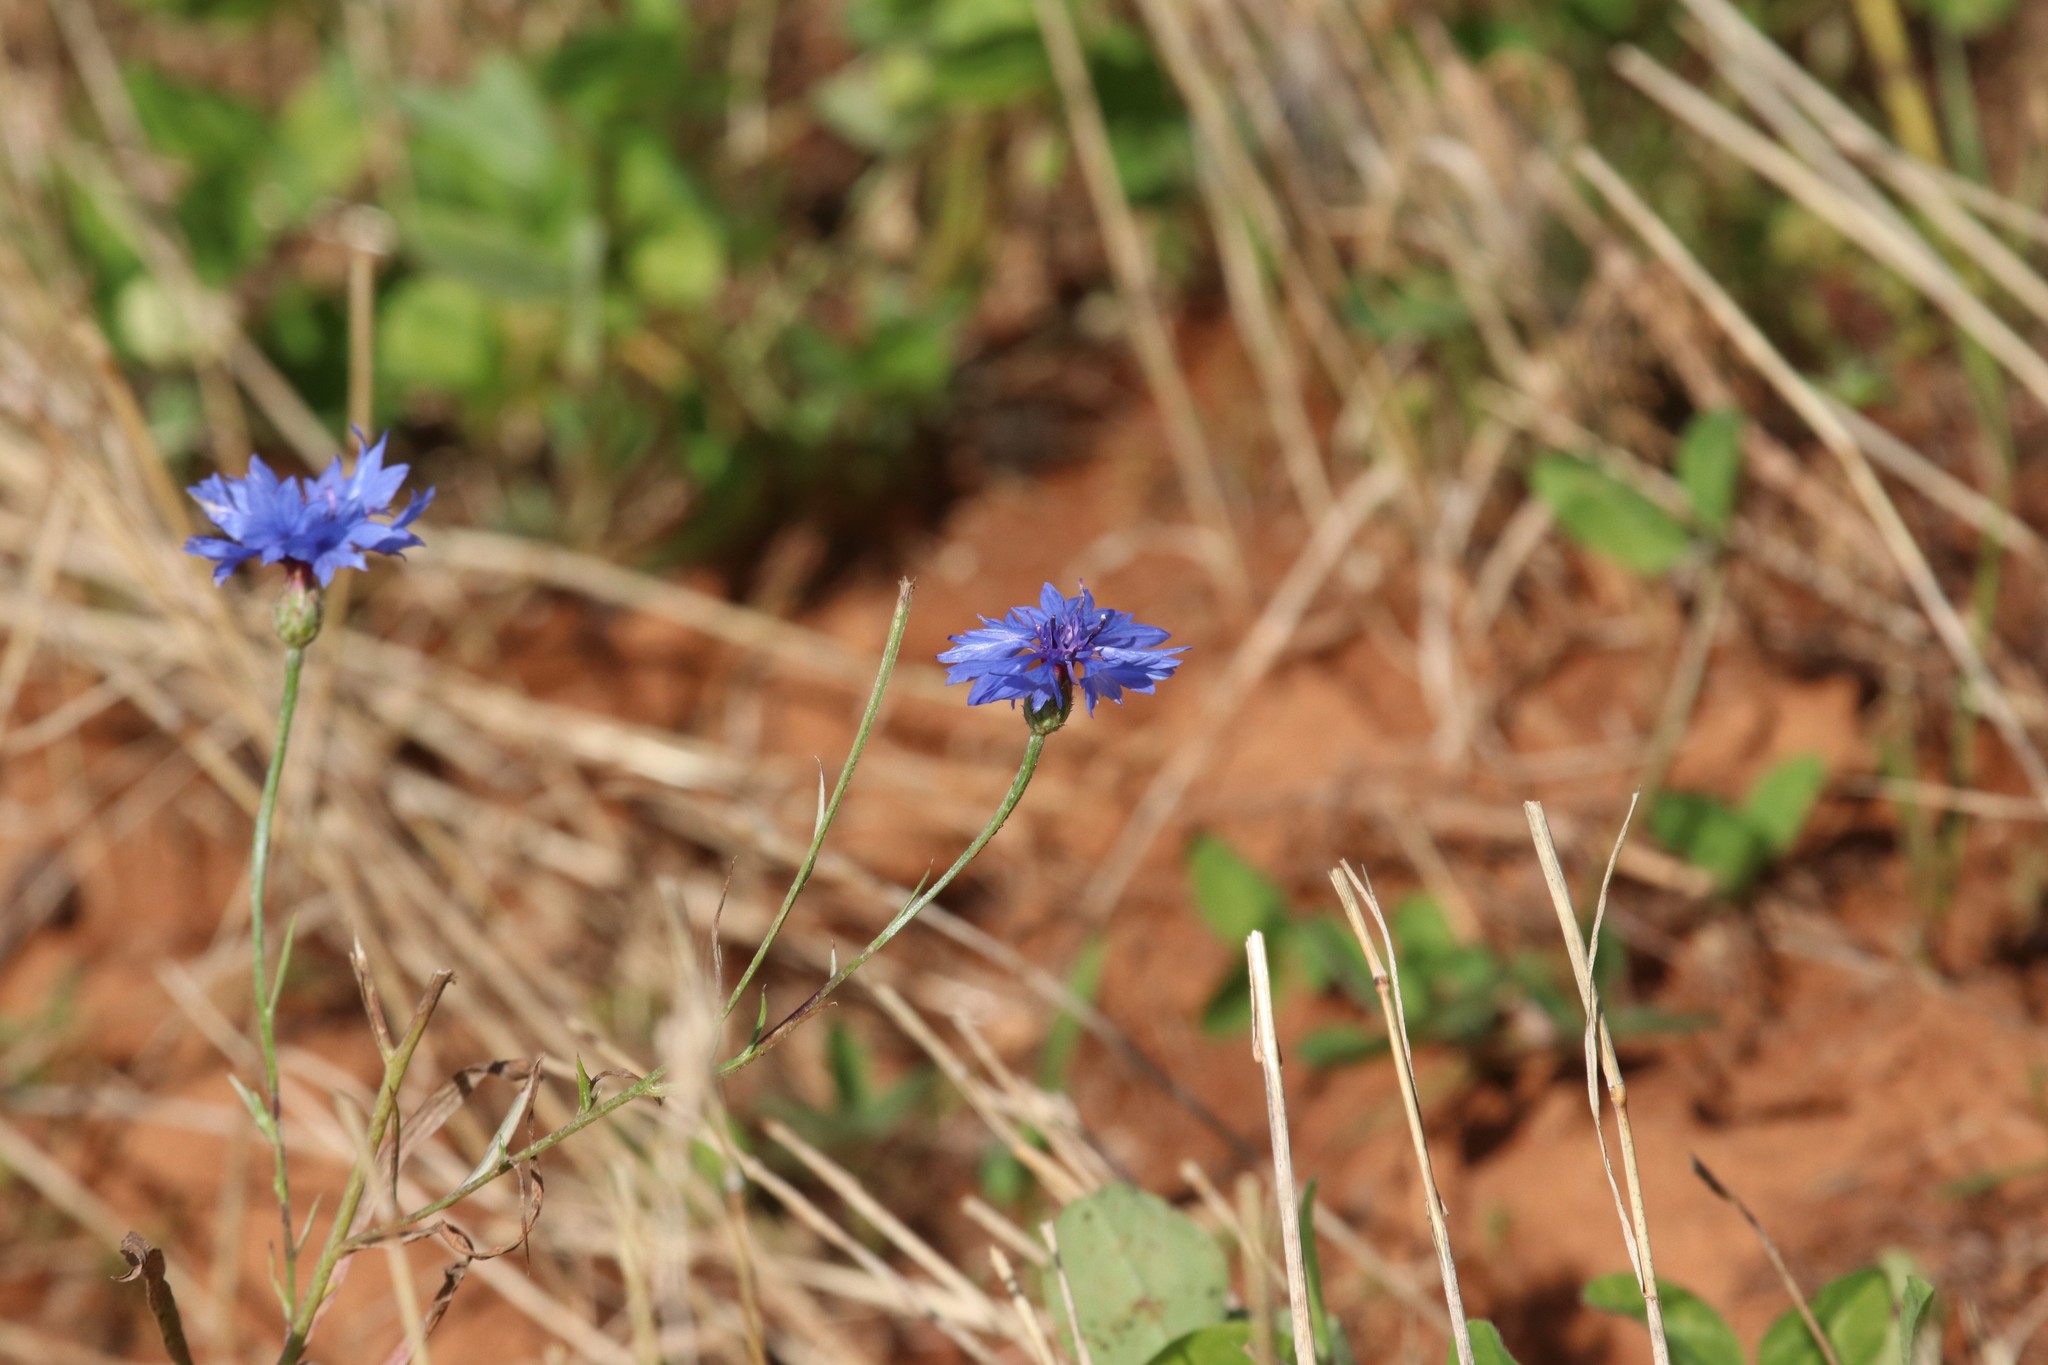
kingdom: Plantae
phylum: Tracheophyta
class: Magnoliopsida
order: Asterales
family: Asteraceae
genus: Centaurea
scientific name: Centaurea cyanus
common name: Cornflower
